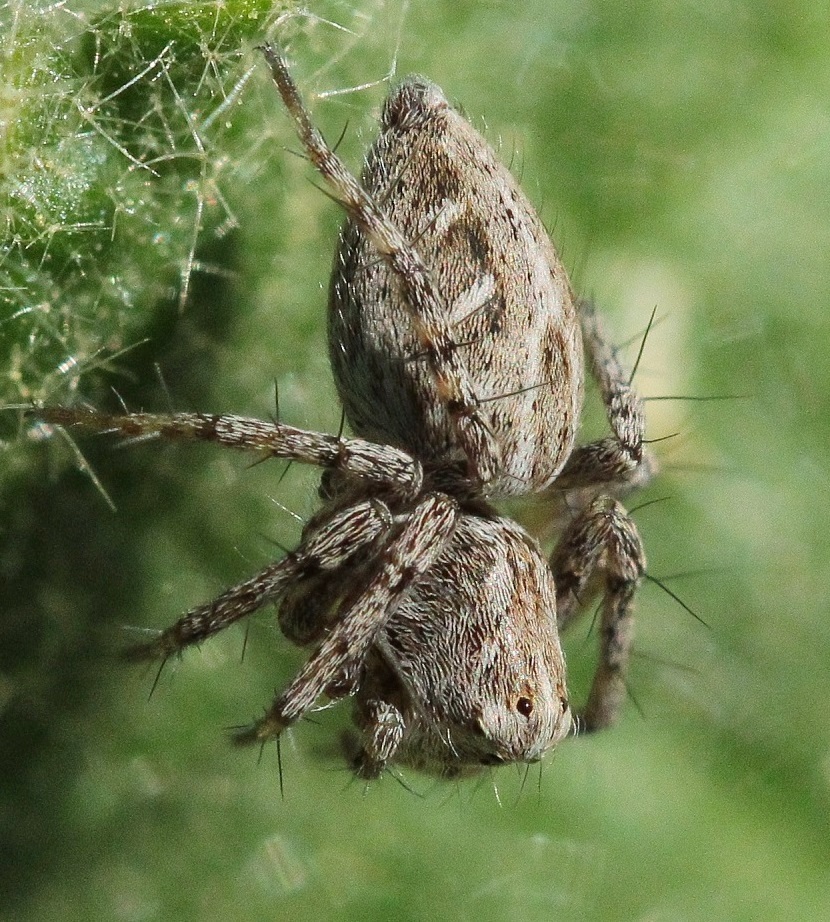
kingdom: Animalia
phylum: Arthropoda
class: Arachnida
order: Araneae
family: Oxyopidae
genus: Oxyopes
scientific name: Oxyopes heterophthalmus
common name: Lynx spider
